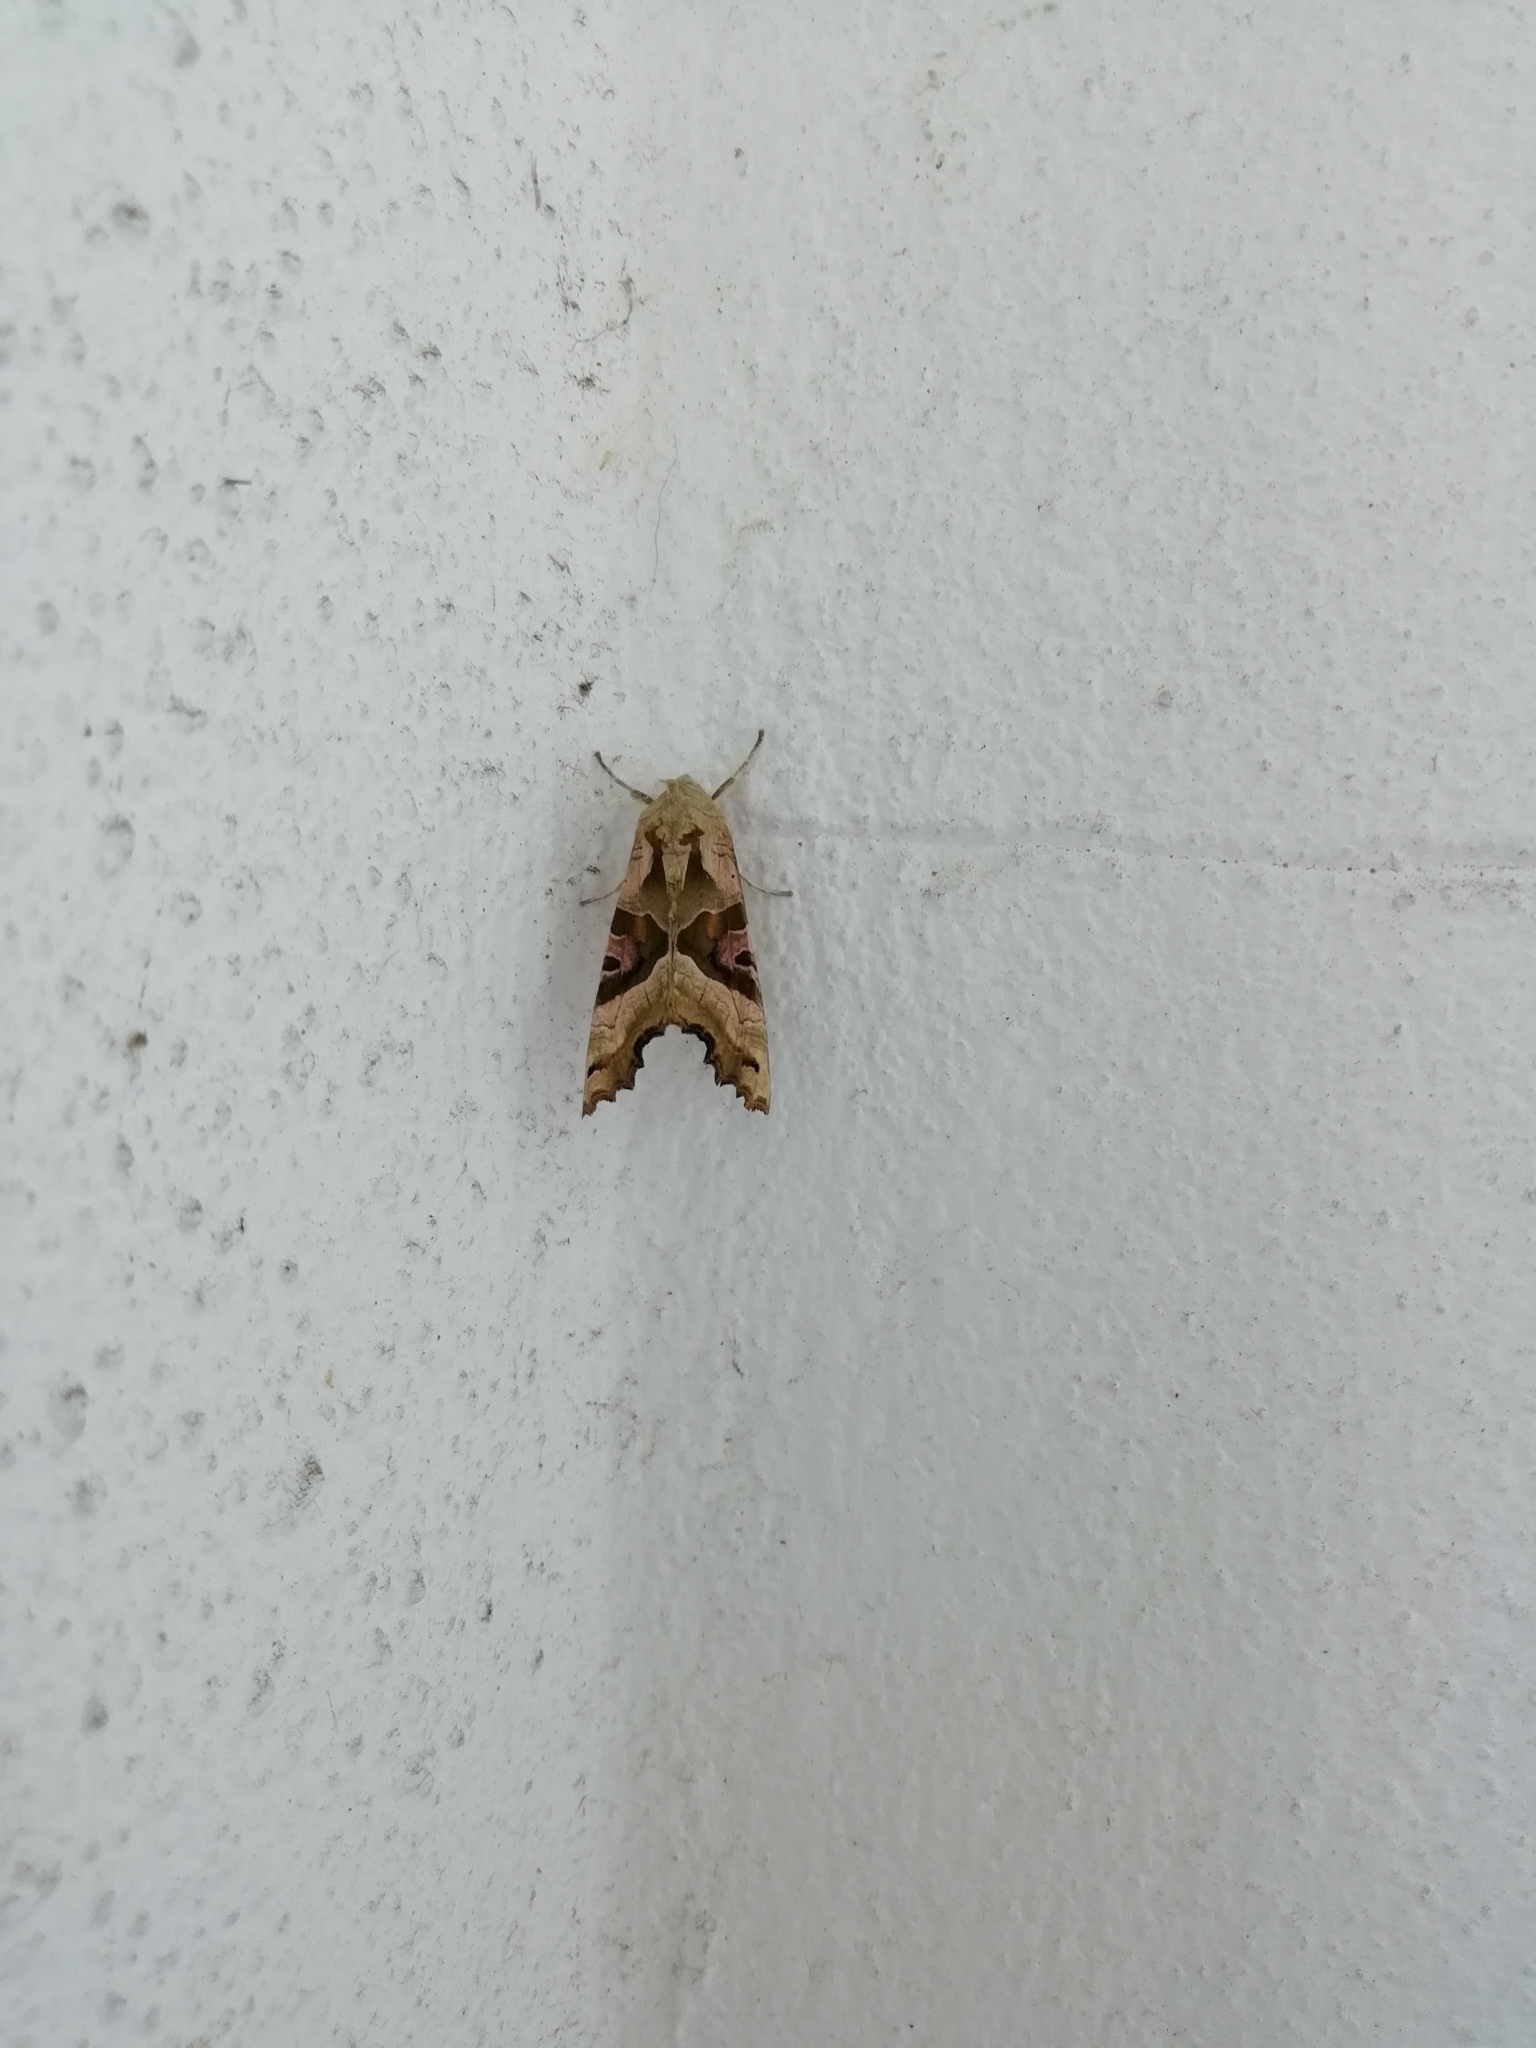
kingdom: Animalia
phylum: Arthropoda
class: Insecta
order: Lepidoptera
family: Noctuidae
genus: Phlogophora
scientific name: Phlogophora meticulosa
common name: Angle shades
